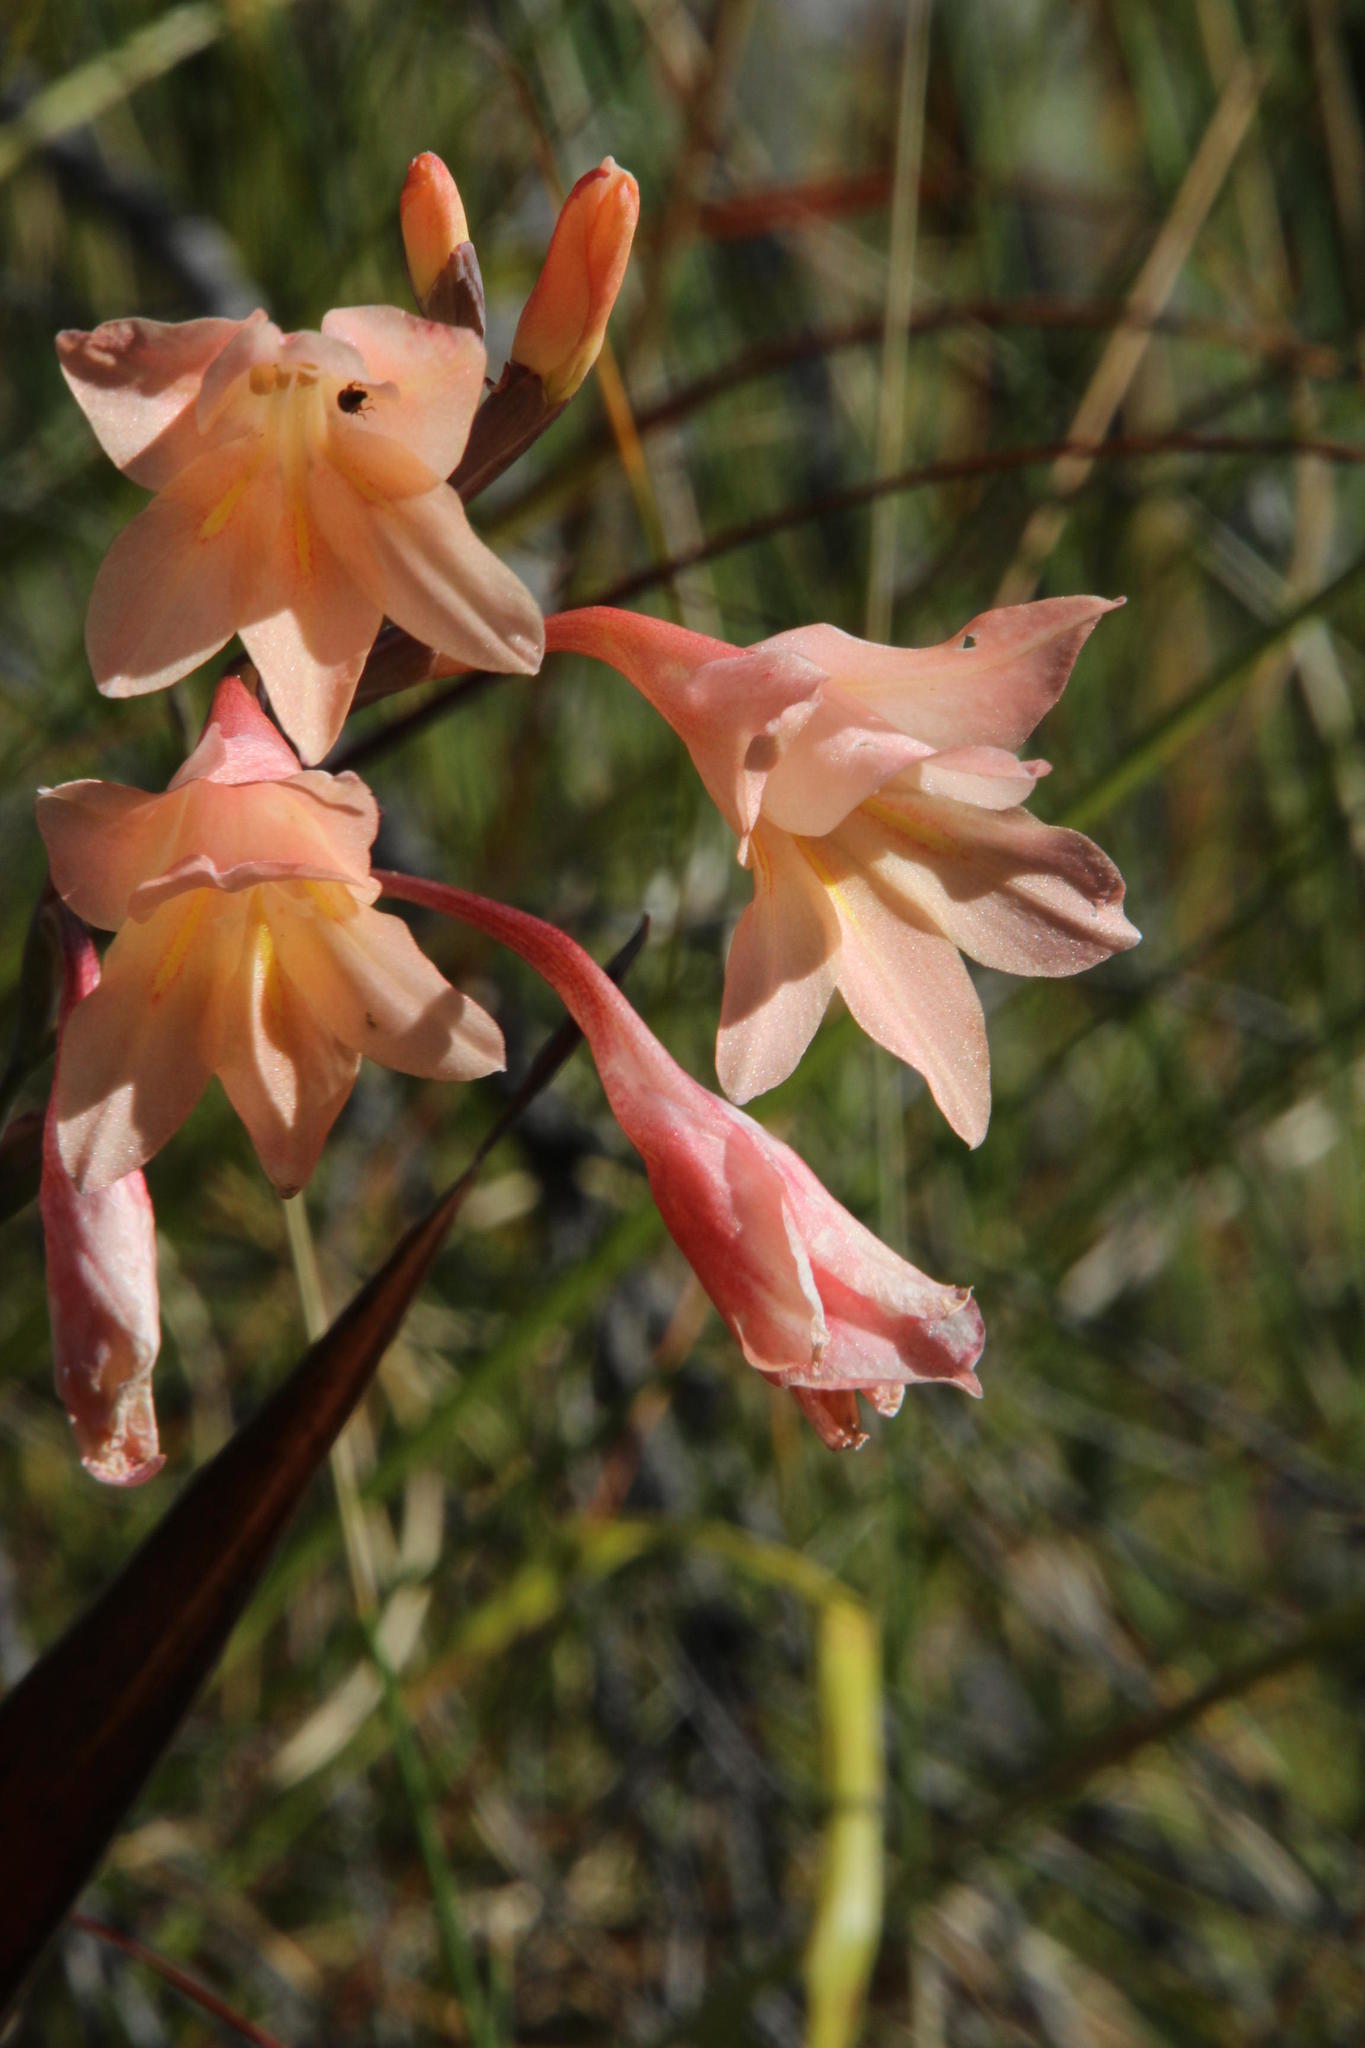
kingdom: Plantae
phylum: Tracheophyta
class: Liliopsida
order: Asparagales
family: Iridaceae
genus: Gladiolus
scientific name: Gladiolus monticola
